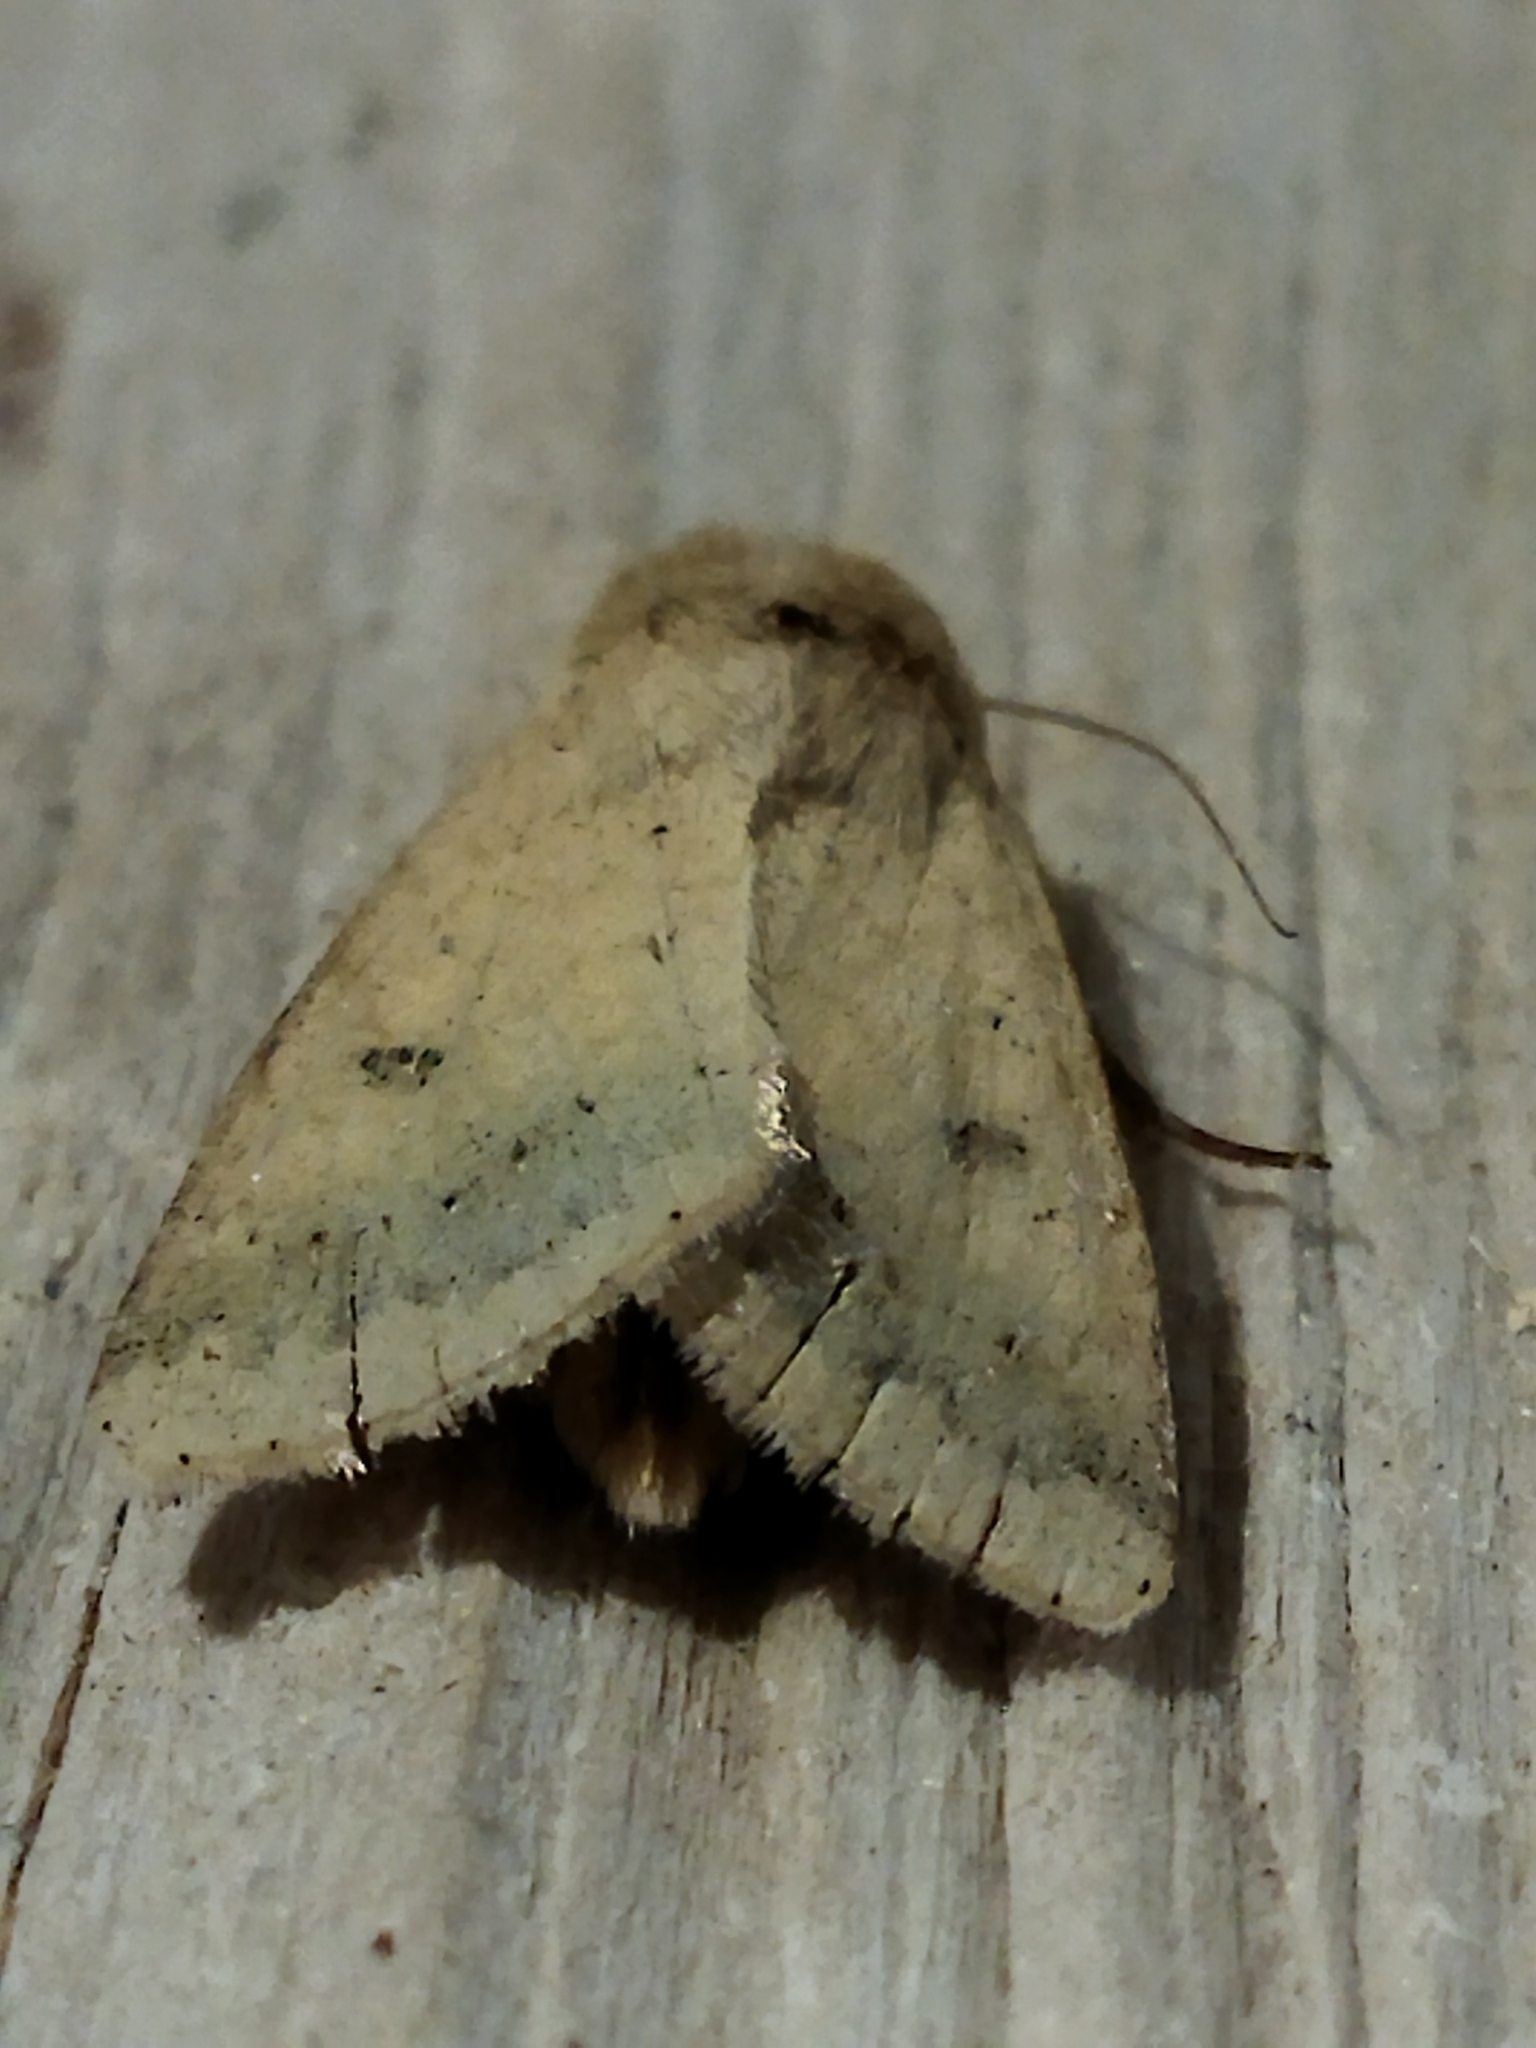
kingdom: Animalia
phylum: Arthropoda
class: Insecta
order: Lepidoptera
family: Noctuidae
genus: Helicoverpa
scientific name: Helicoverpa armigera
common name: Cotton bollworm
